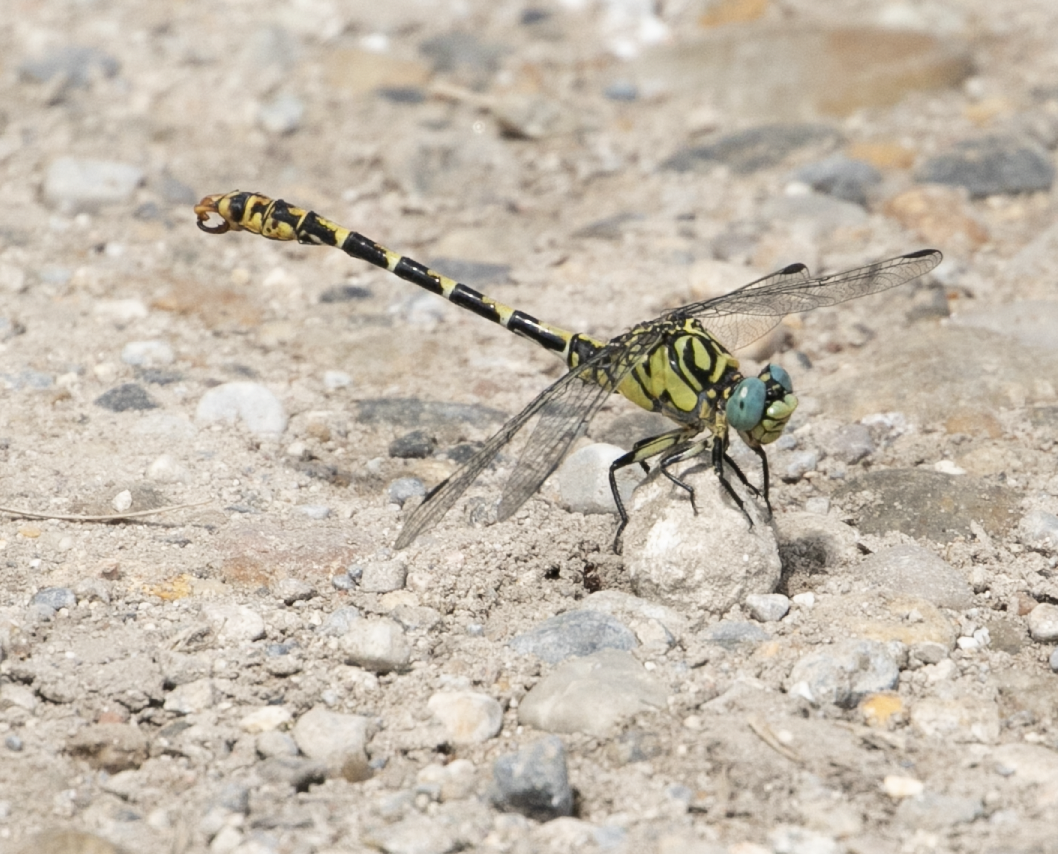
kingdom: Animalia
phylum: Arthropoda
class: Insecta
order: Odonata
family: Gomphidae
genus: Onychogomphus
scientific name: Onychogomphus forcipatus
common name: Small pincertail
